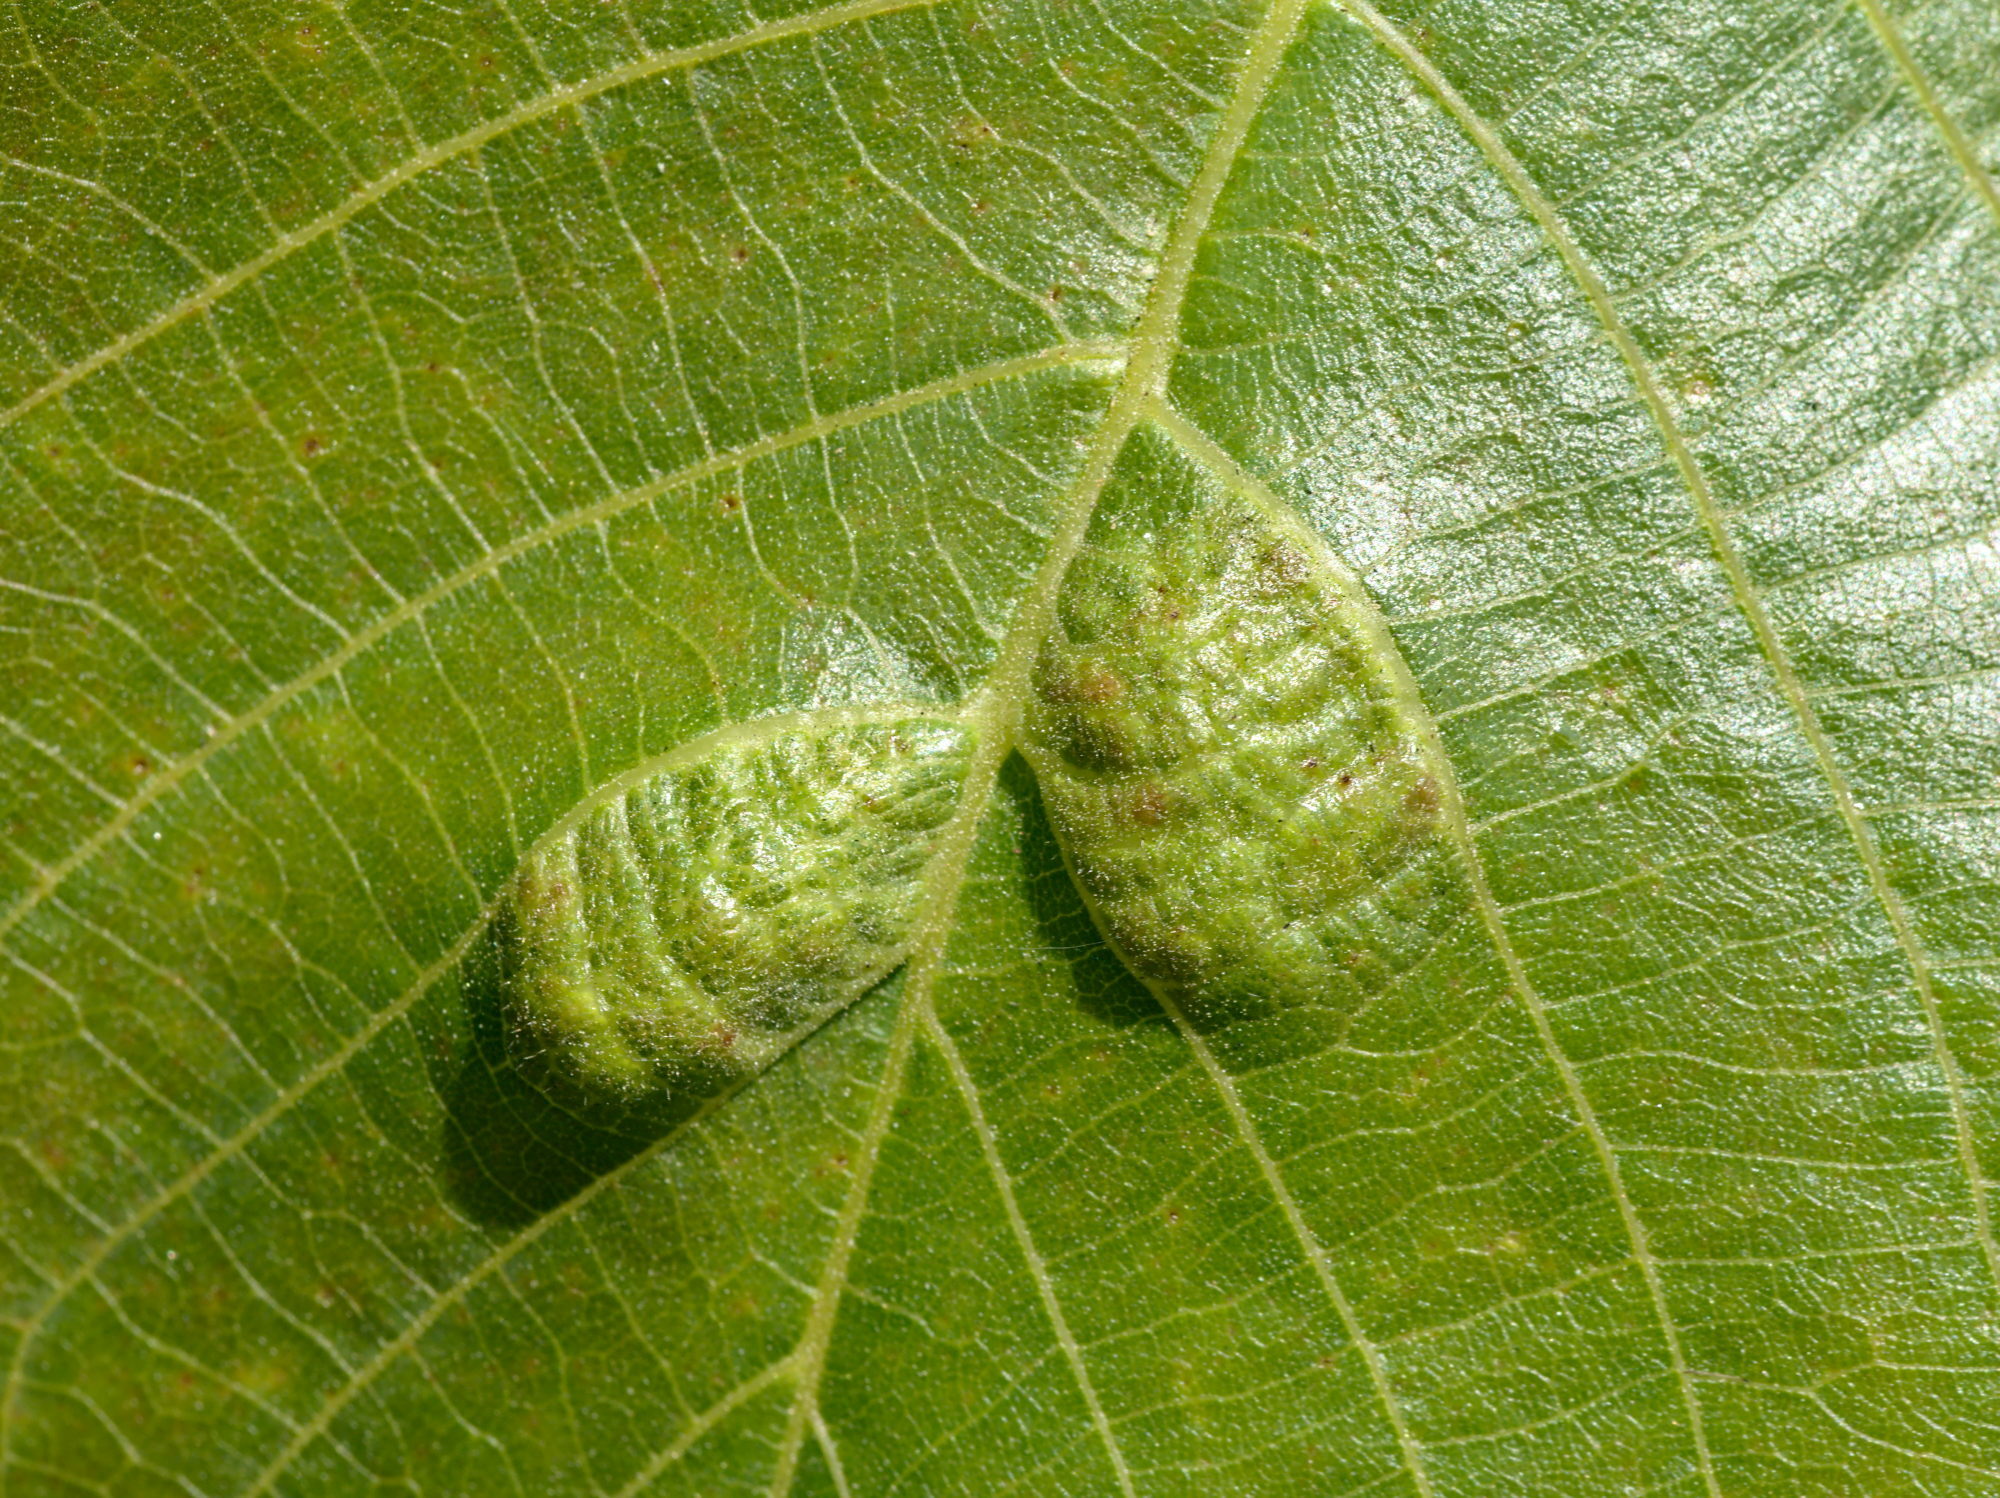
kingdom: Animalia
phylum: Arthropoda
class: Arachnida
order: Trombidiformes
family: Eriophyidae
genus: Aceria
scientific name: Aceria erinea
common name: Persian walnut erineum mite
